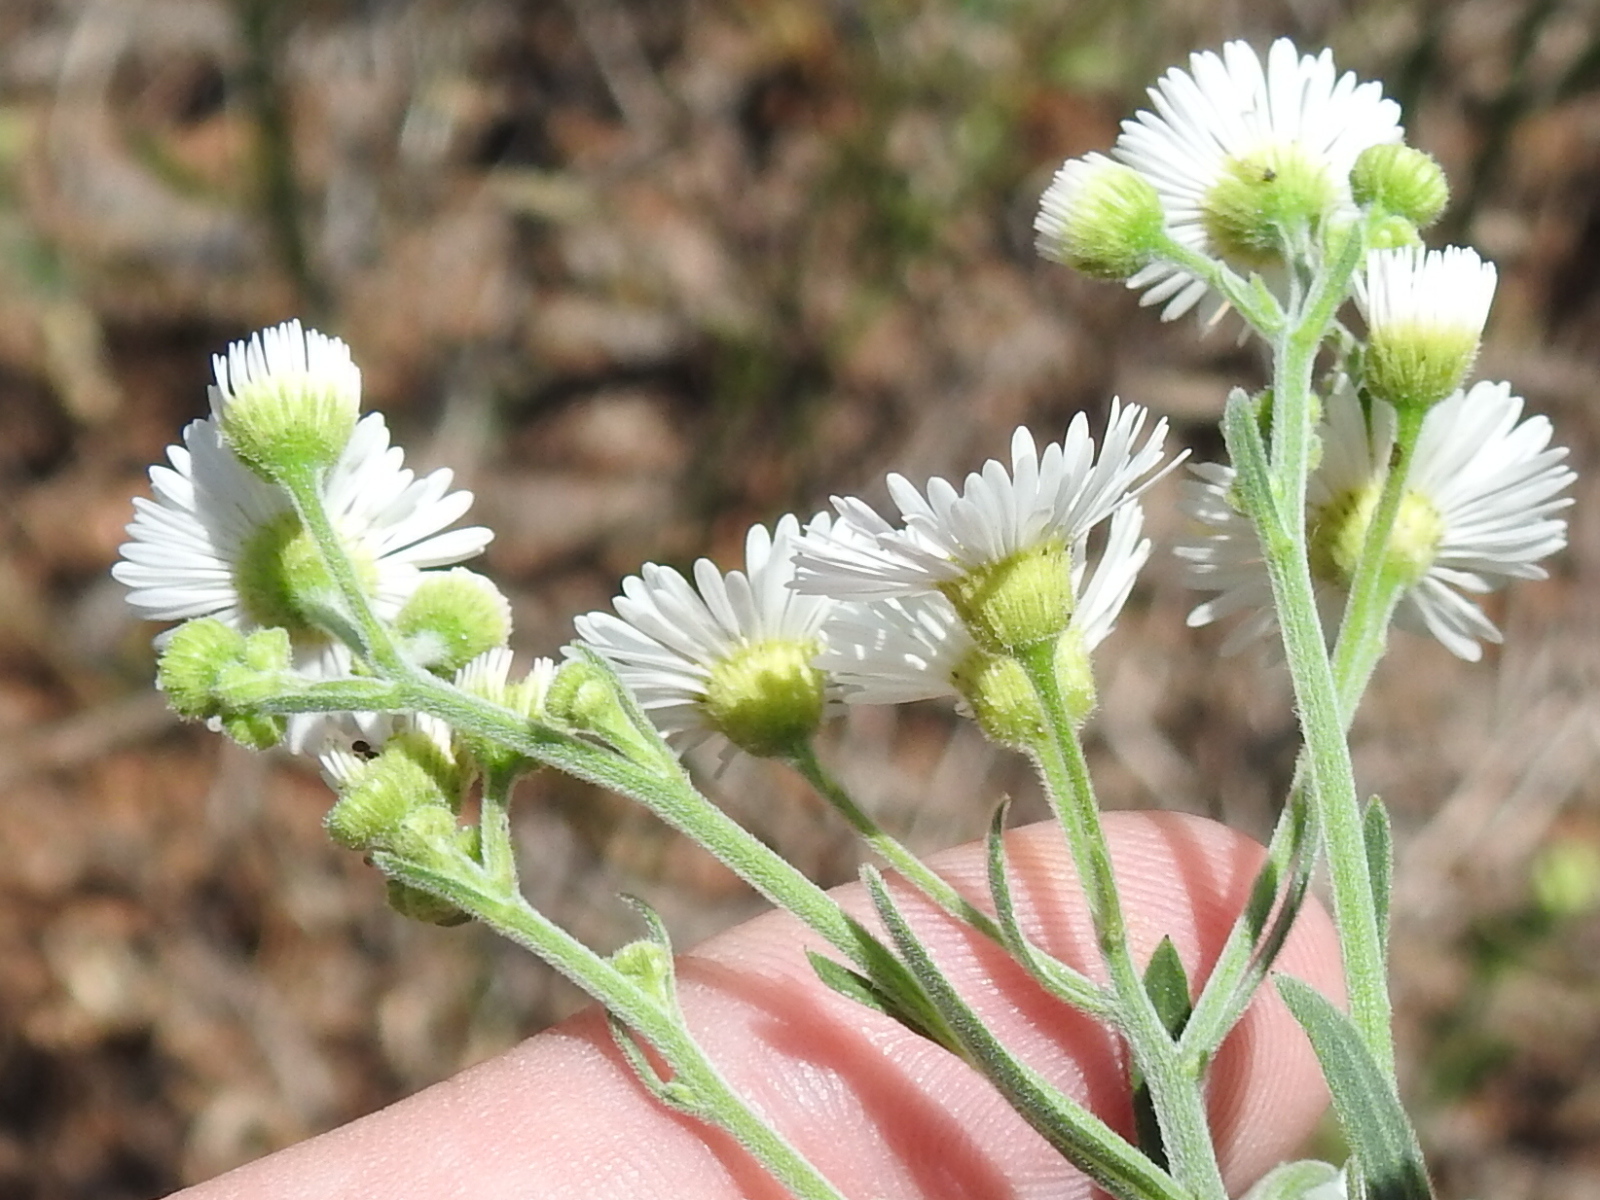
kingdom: Plantae
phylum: Tracheophyta
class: Magnoliopsida
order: Asterales
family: Asteraceae
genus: Erigeron
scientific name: Erigeron strigosus
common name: Common eastern fleabane
